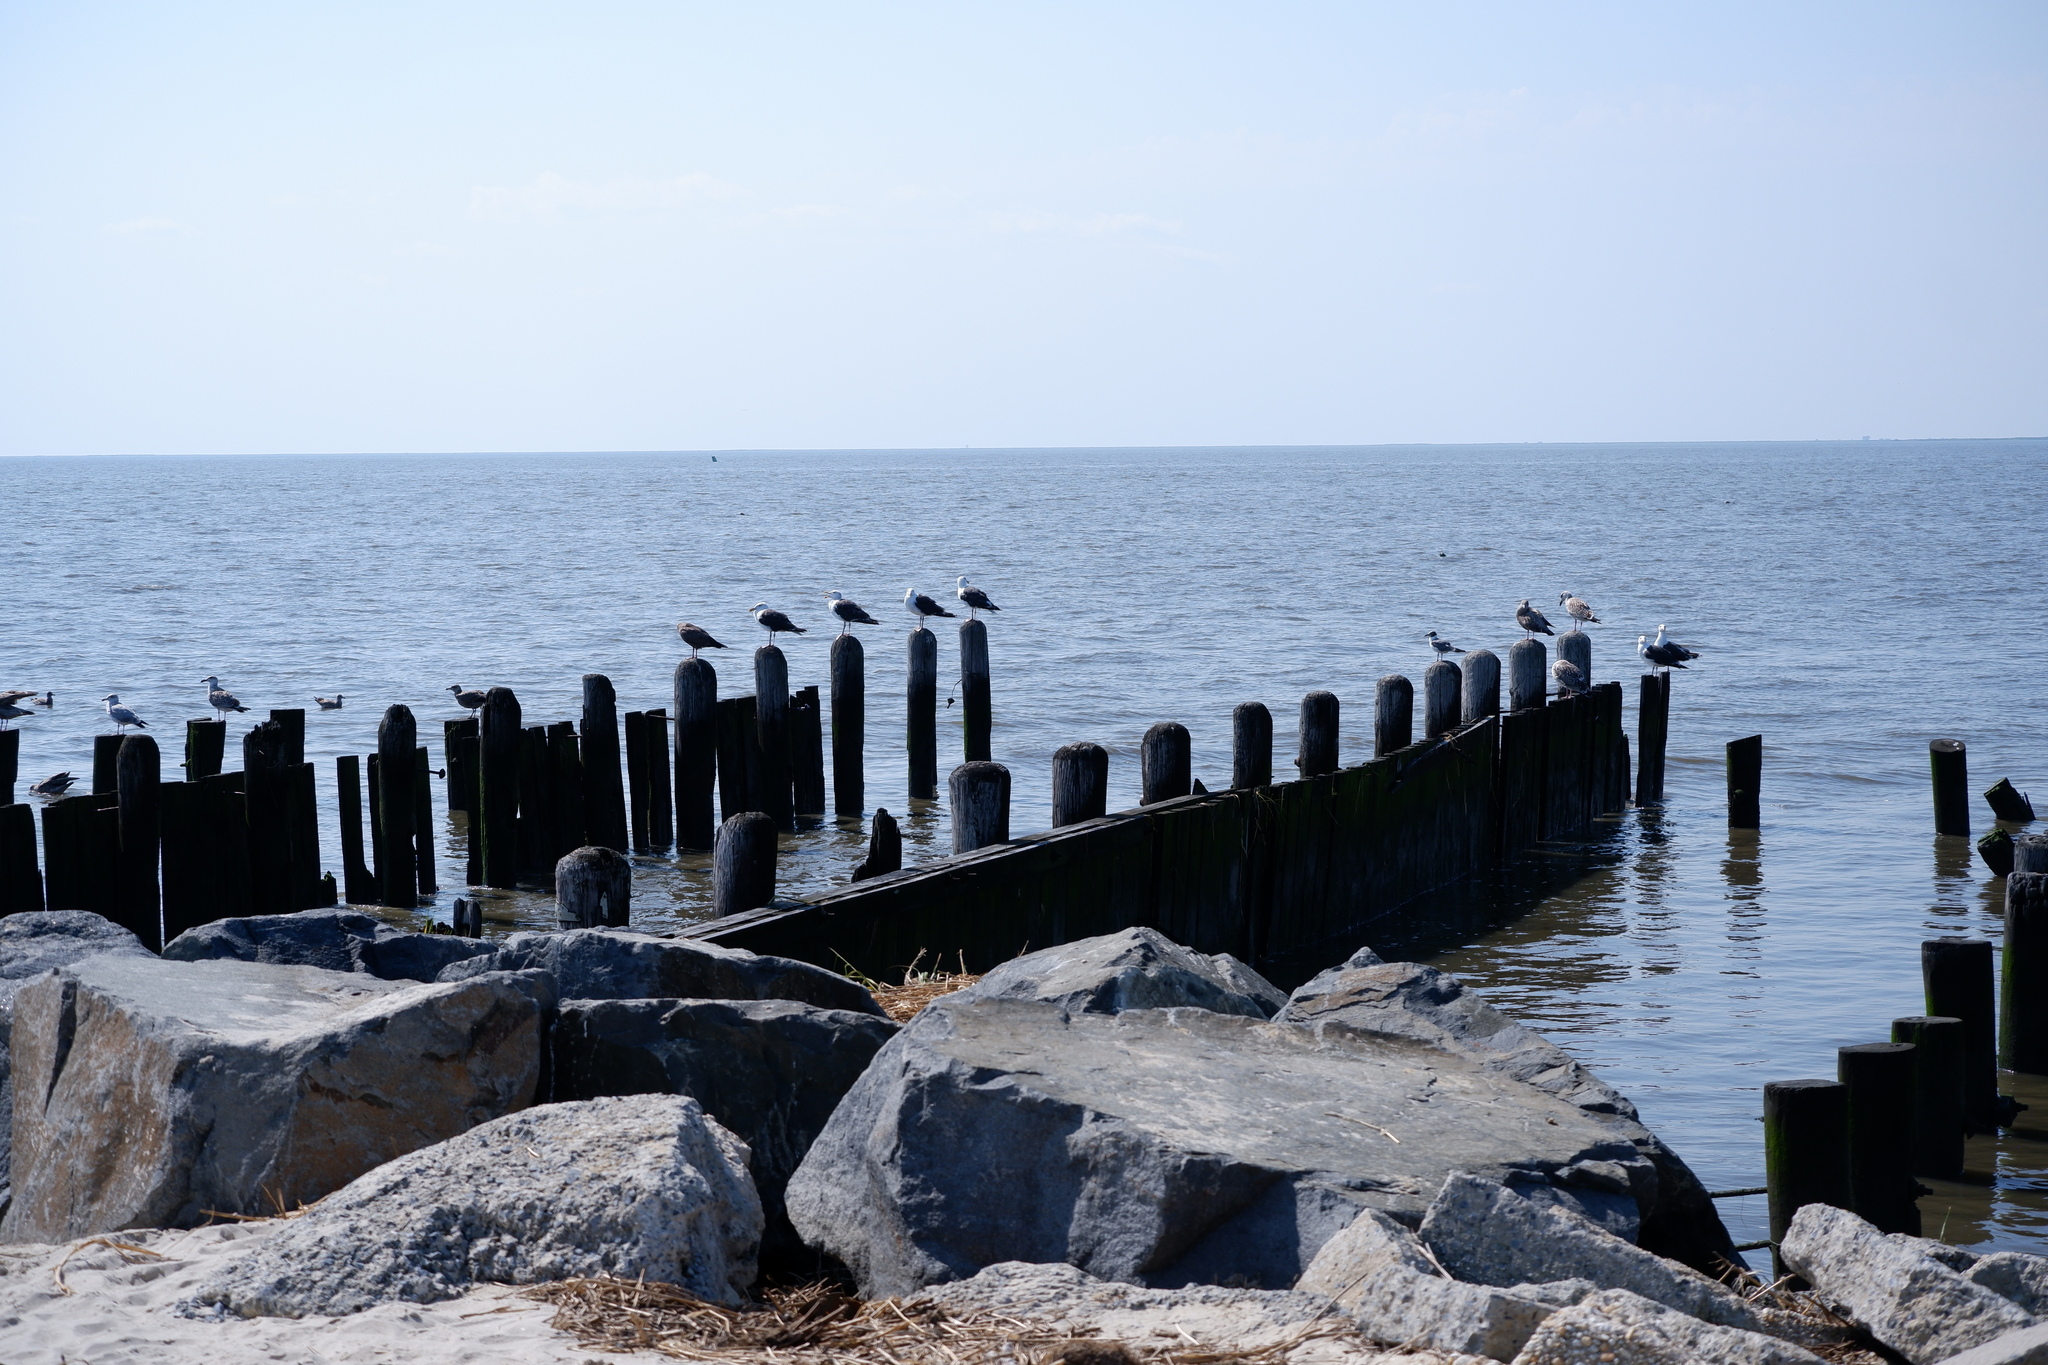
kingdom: Animalia
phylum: Chordata
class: Aves
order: Charadriiformes
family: Laridae
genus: Larus
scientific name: Larus marinus
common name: Great black-backed gull
